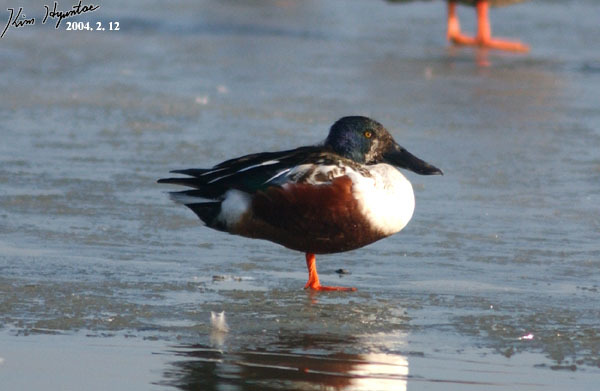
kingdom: Animalia
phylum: Chordata
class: Aves
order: Anseriformes
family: Anatidae
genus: Spatula
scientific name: Spatula clypeata
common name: Northern shoveler
